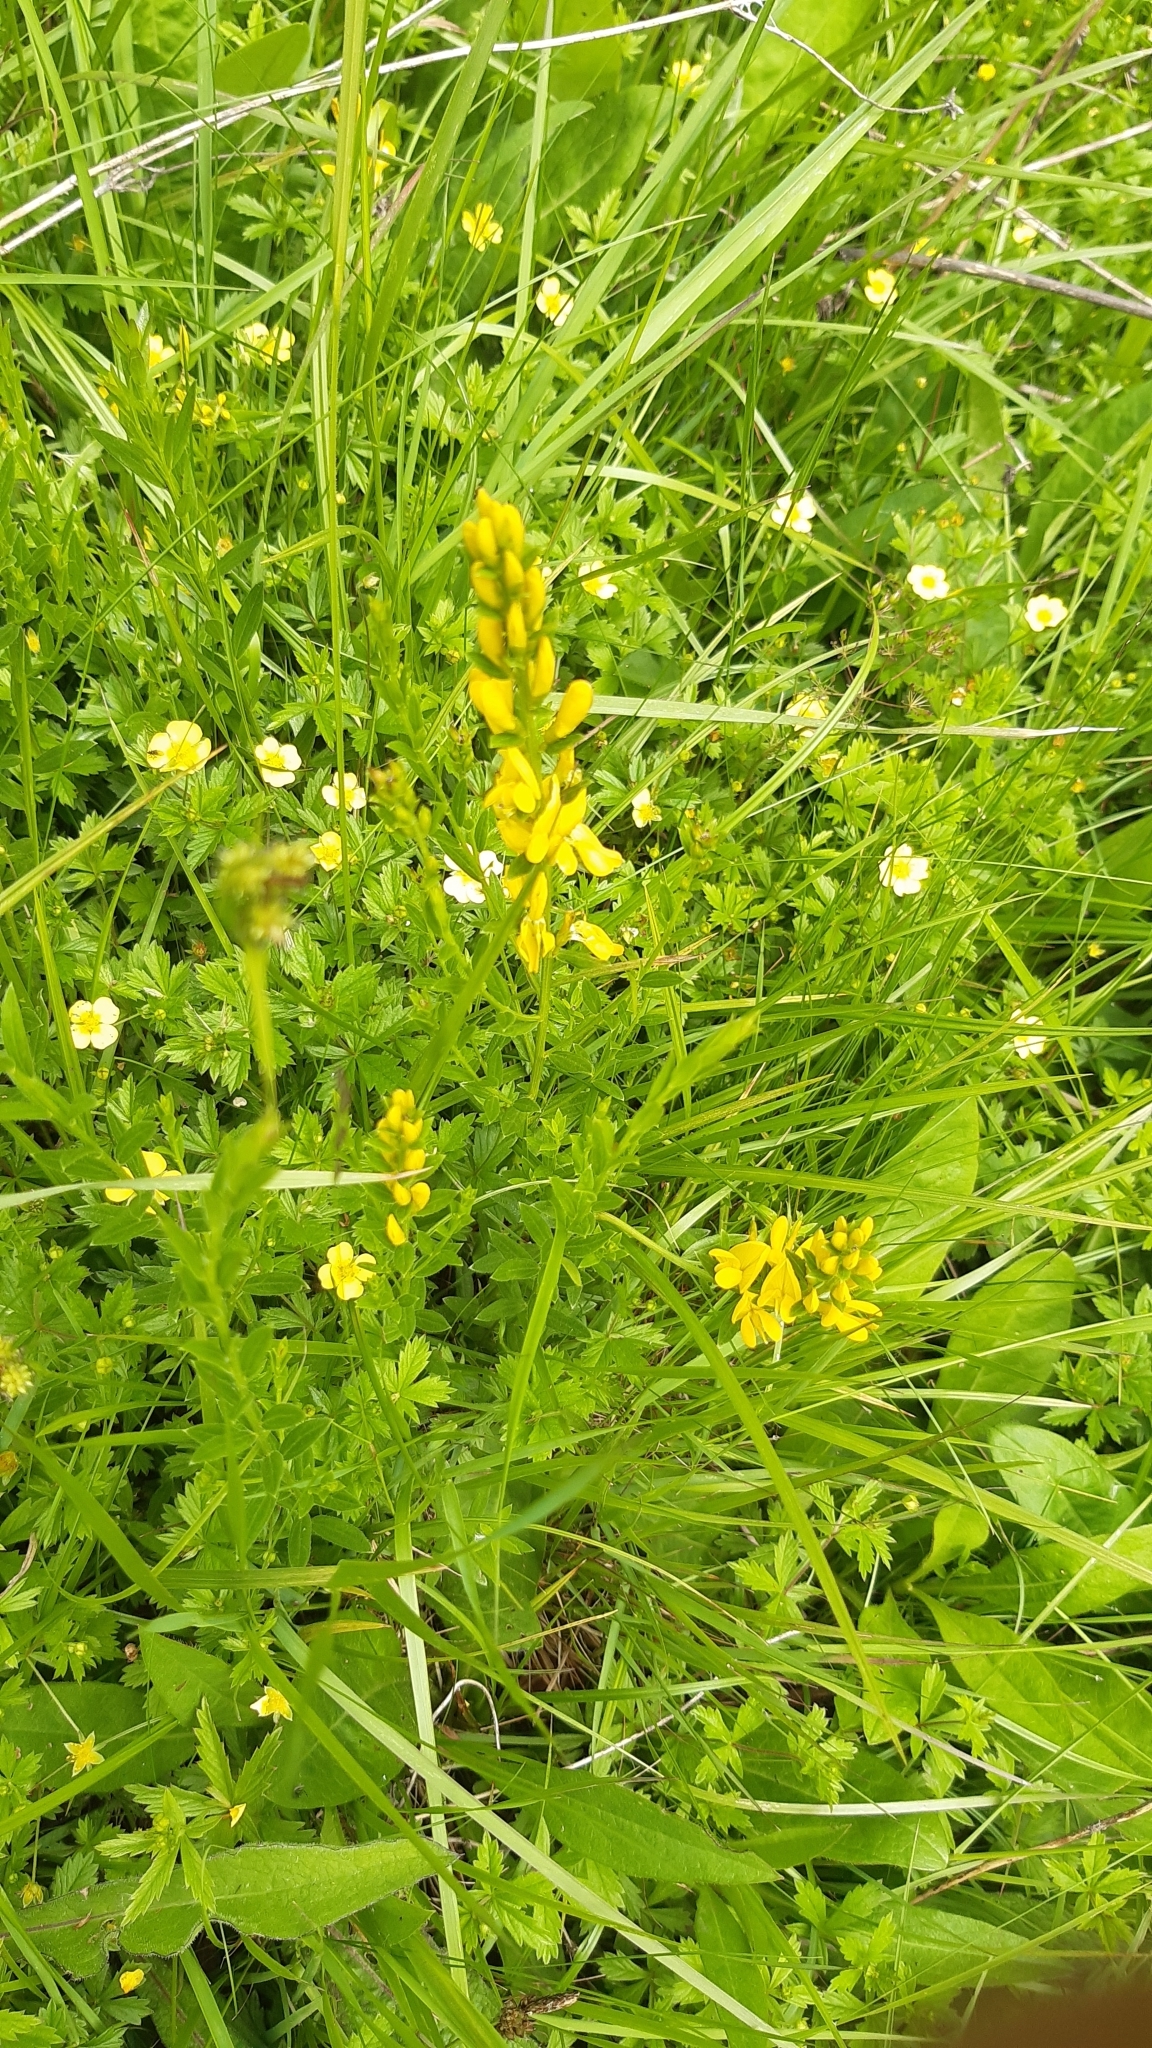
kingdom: Plantae
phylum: Tracheophyta
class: Magnoliopsida
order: Fabales
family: Fabaceae
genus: Genista
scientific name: Genista tinctoria
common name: Dyer's greenweed
